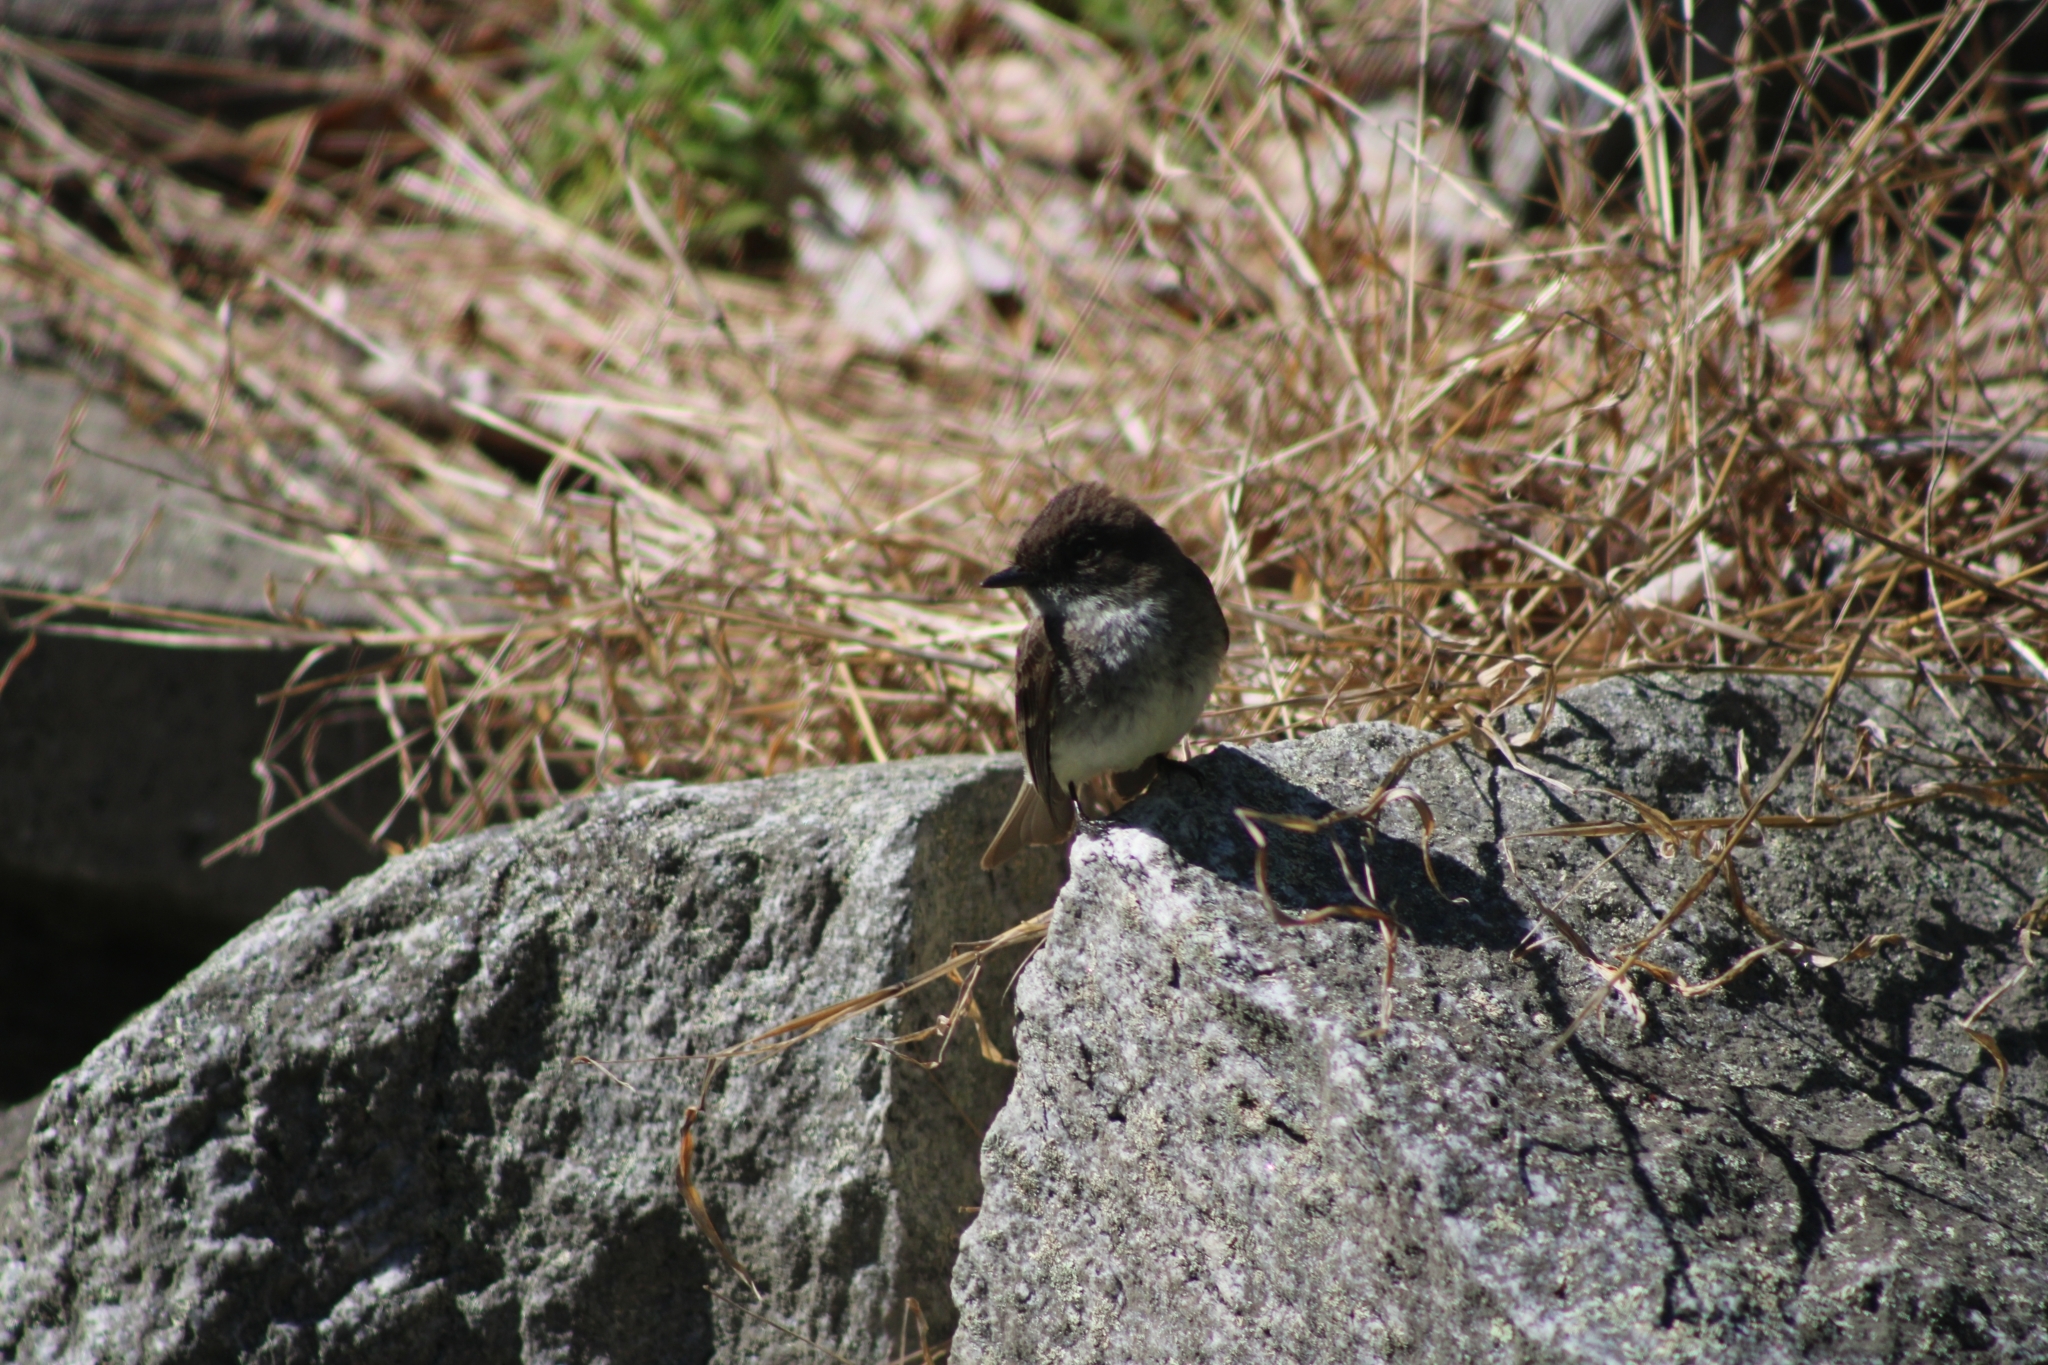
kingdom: Animalia
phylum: Chordata
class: Aves
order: Passeriformes
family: Tyrannidae
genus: Sayornis
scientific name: Sayornis phoebe
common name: Eastern phoebe
